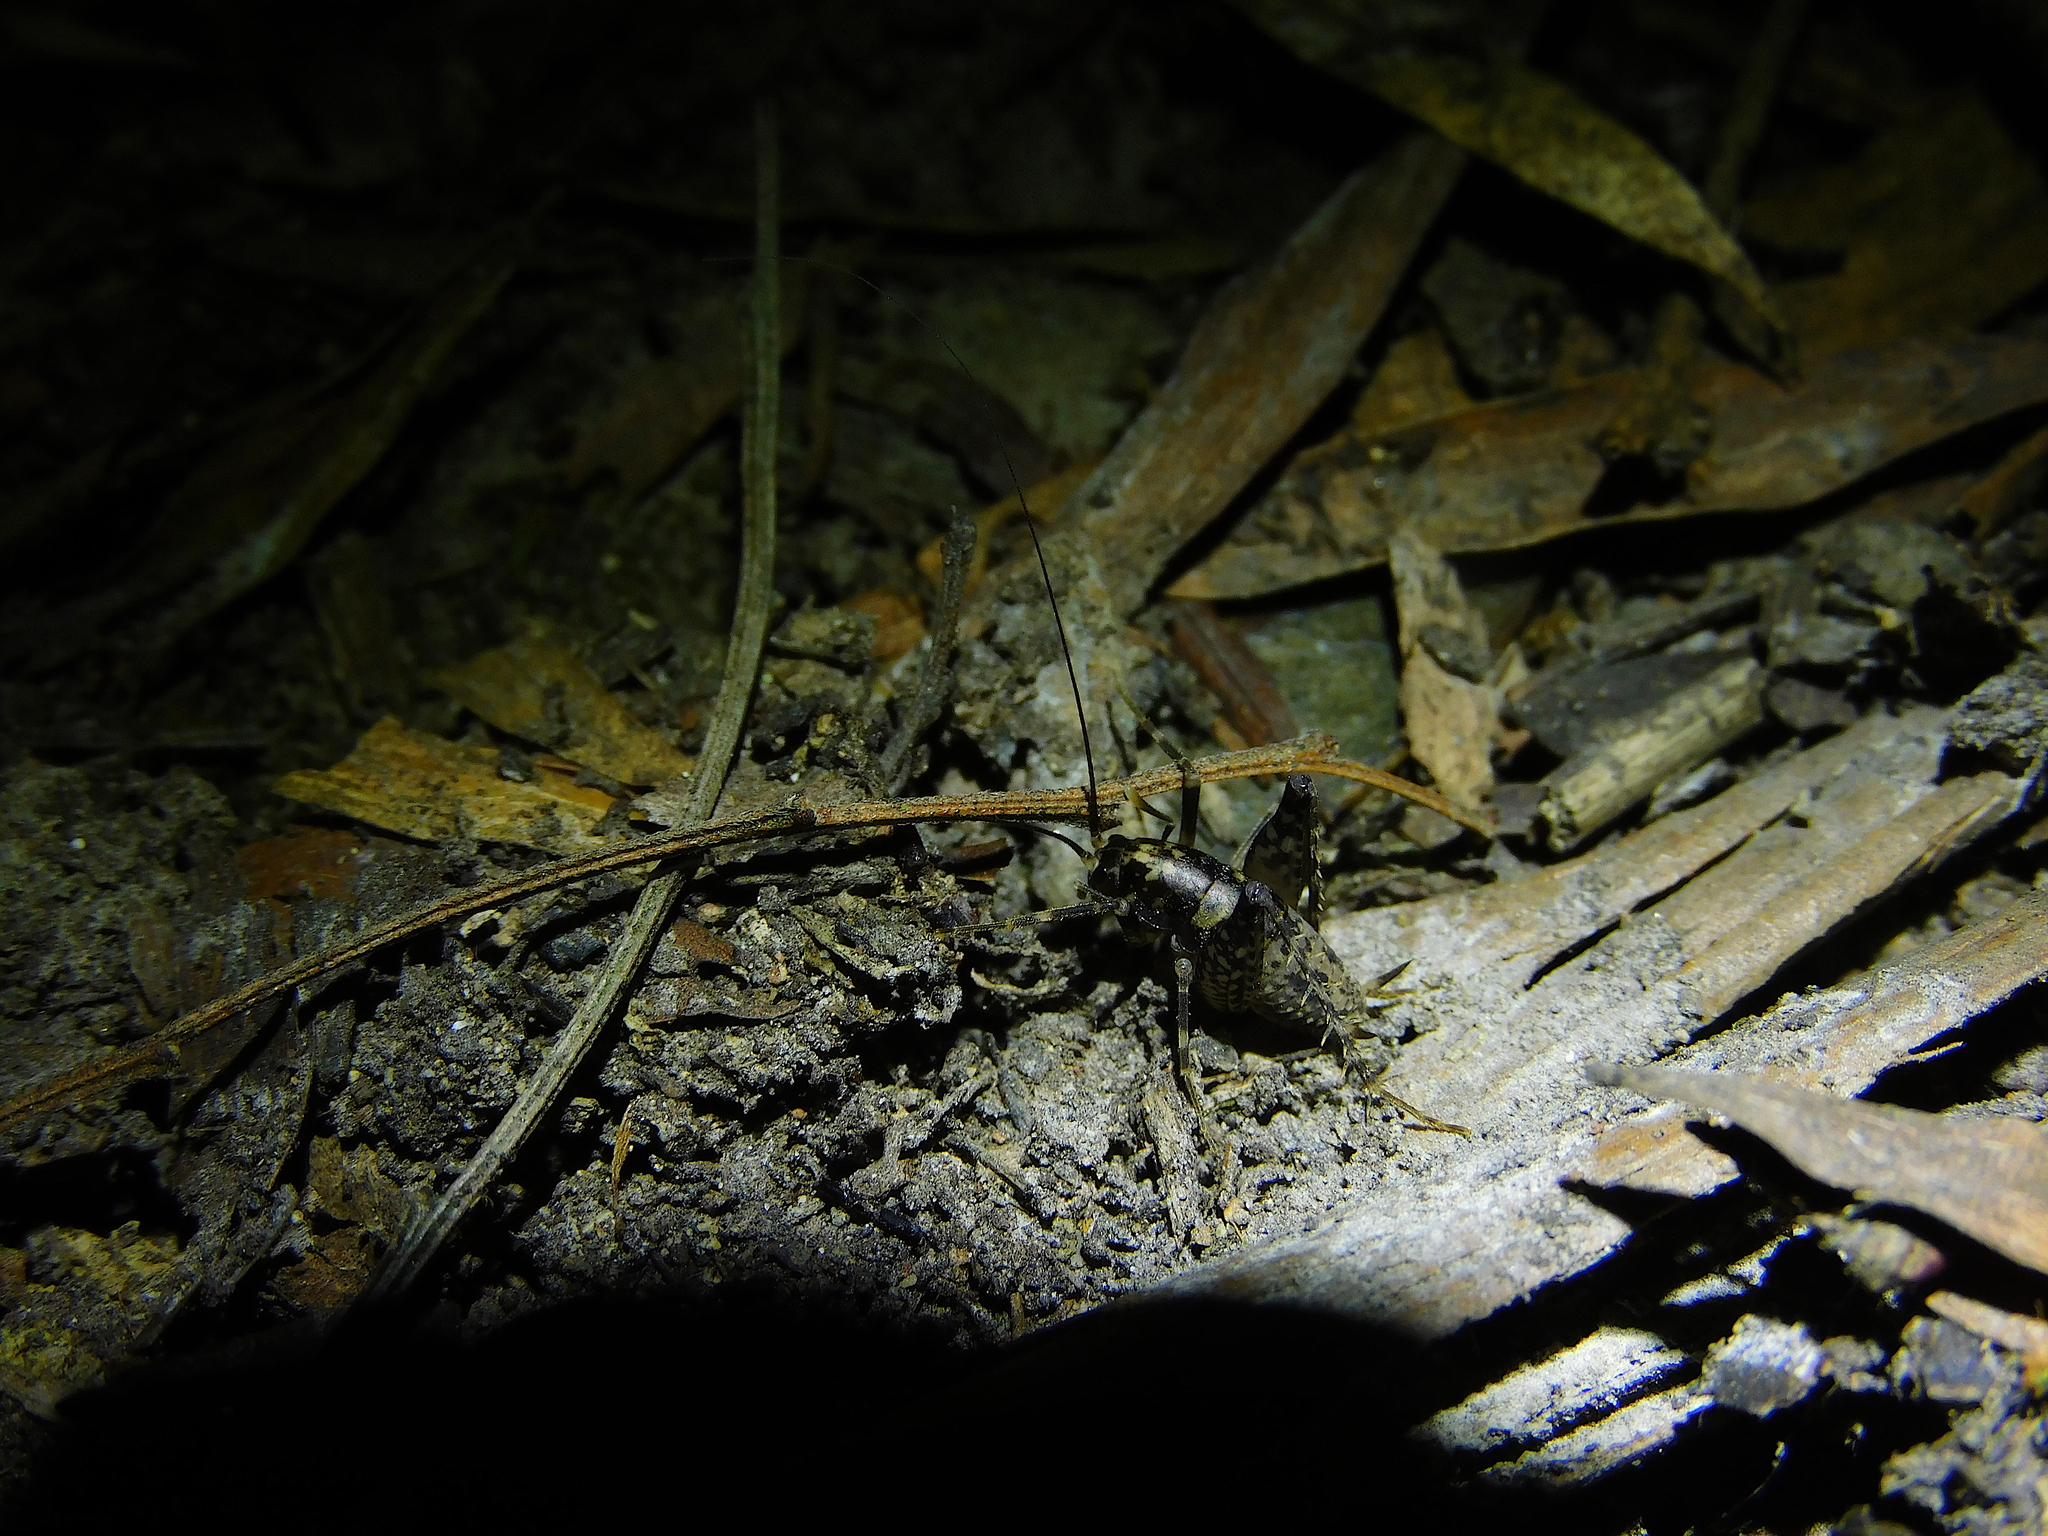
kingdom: Animalia
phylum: Arthropoda
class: Insecta
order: Orthoptera
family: Rhaphidophoridae
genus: Parvotettix
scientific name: Parvotettix domesticus
